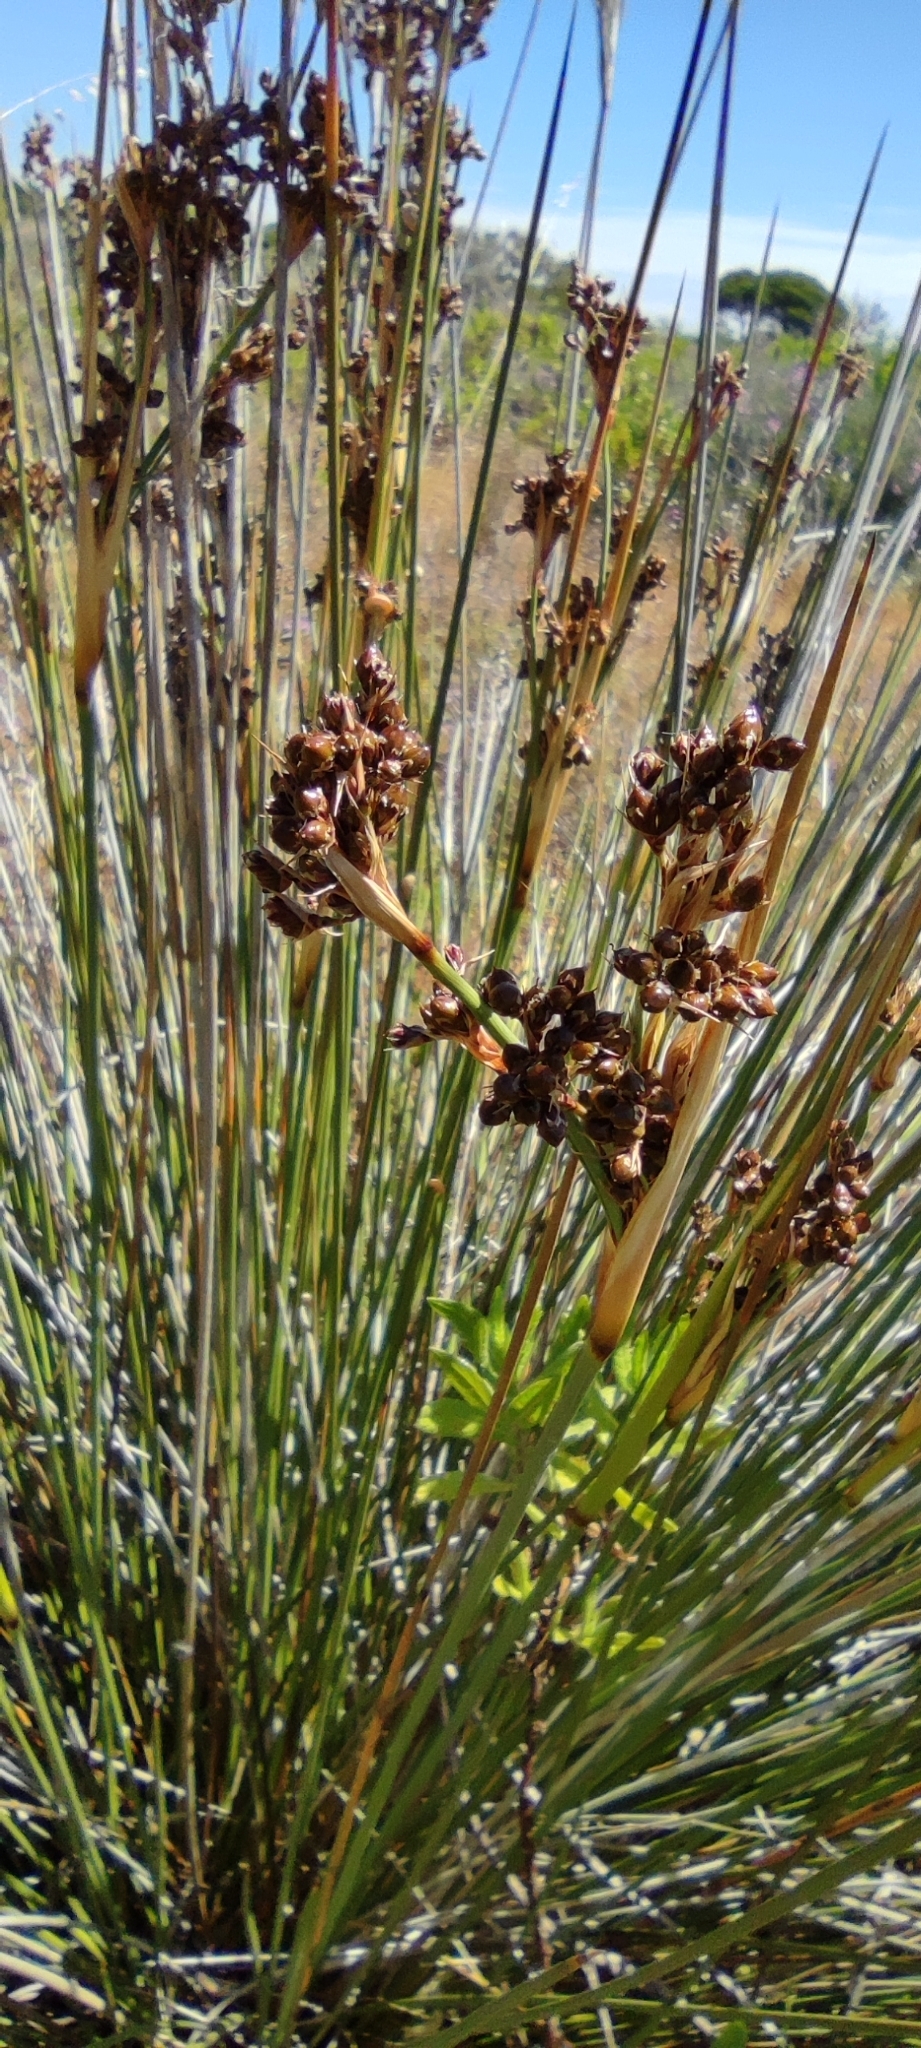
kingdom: Plantae
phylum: Tracheophyta
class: Liliopsida
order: Poales
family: Juncaceae
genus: Juncus
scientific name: Juncus acutus
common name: Sharp rush
